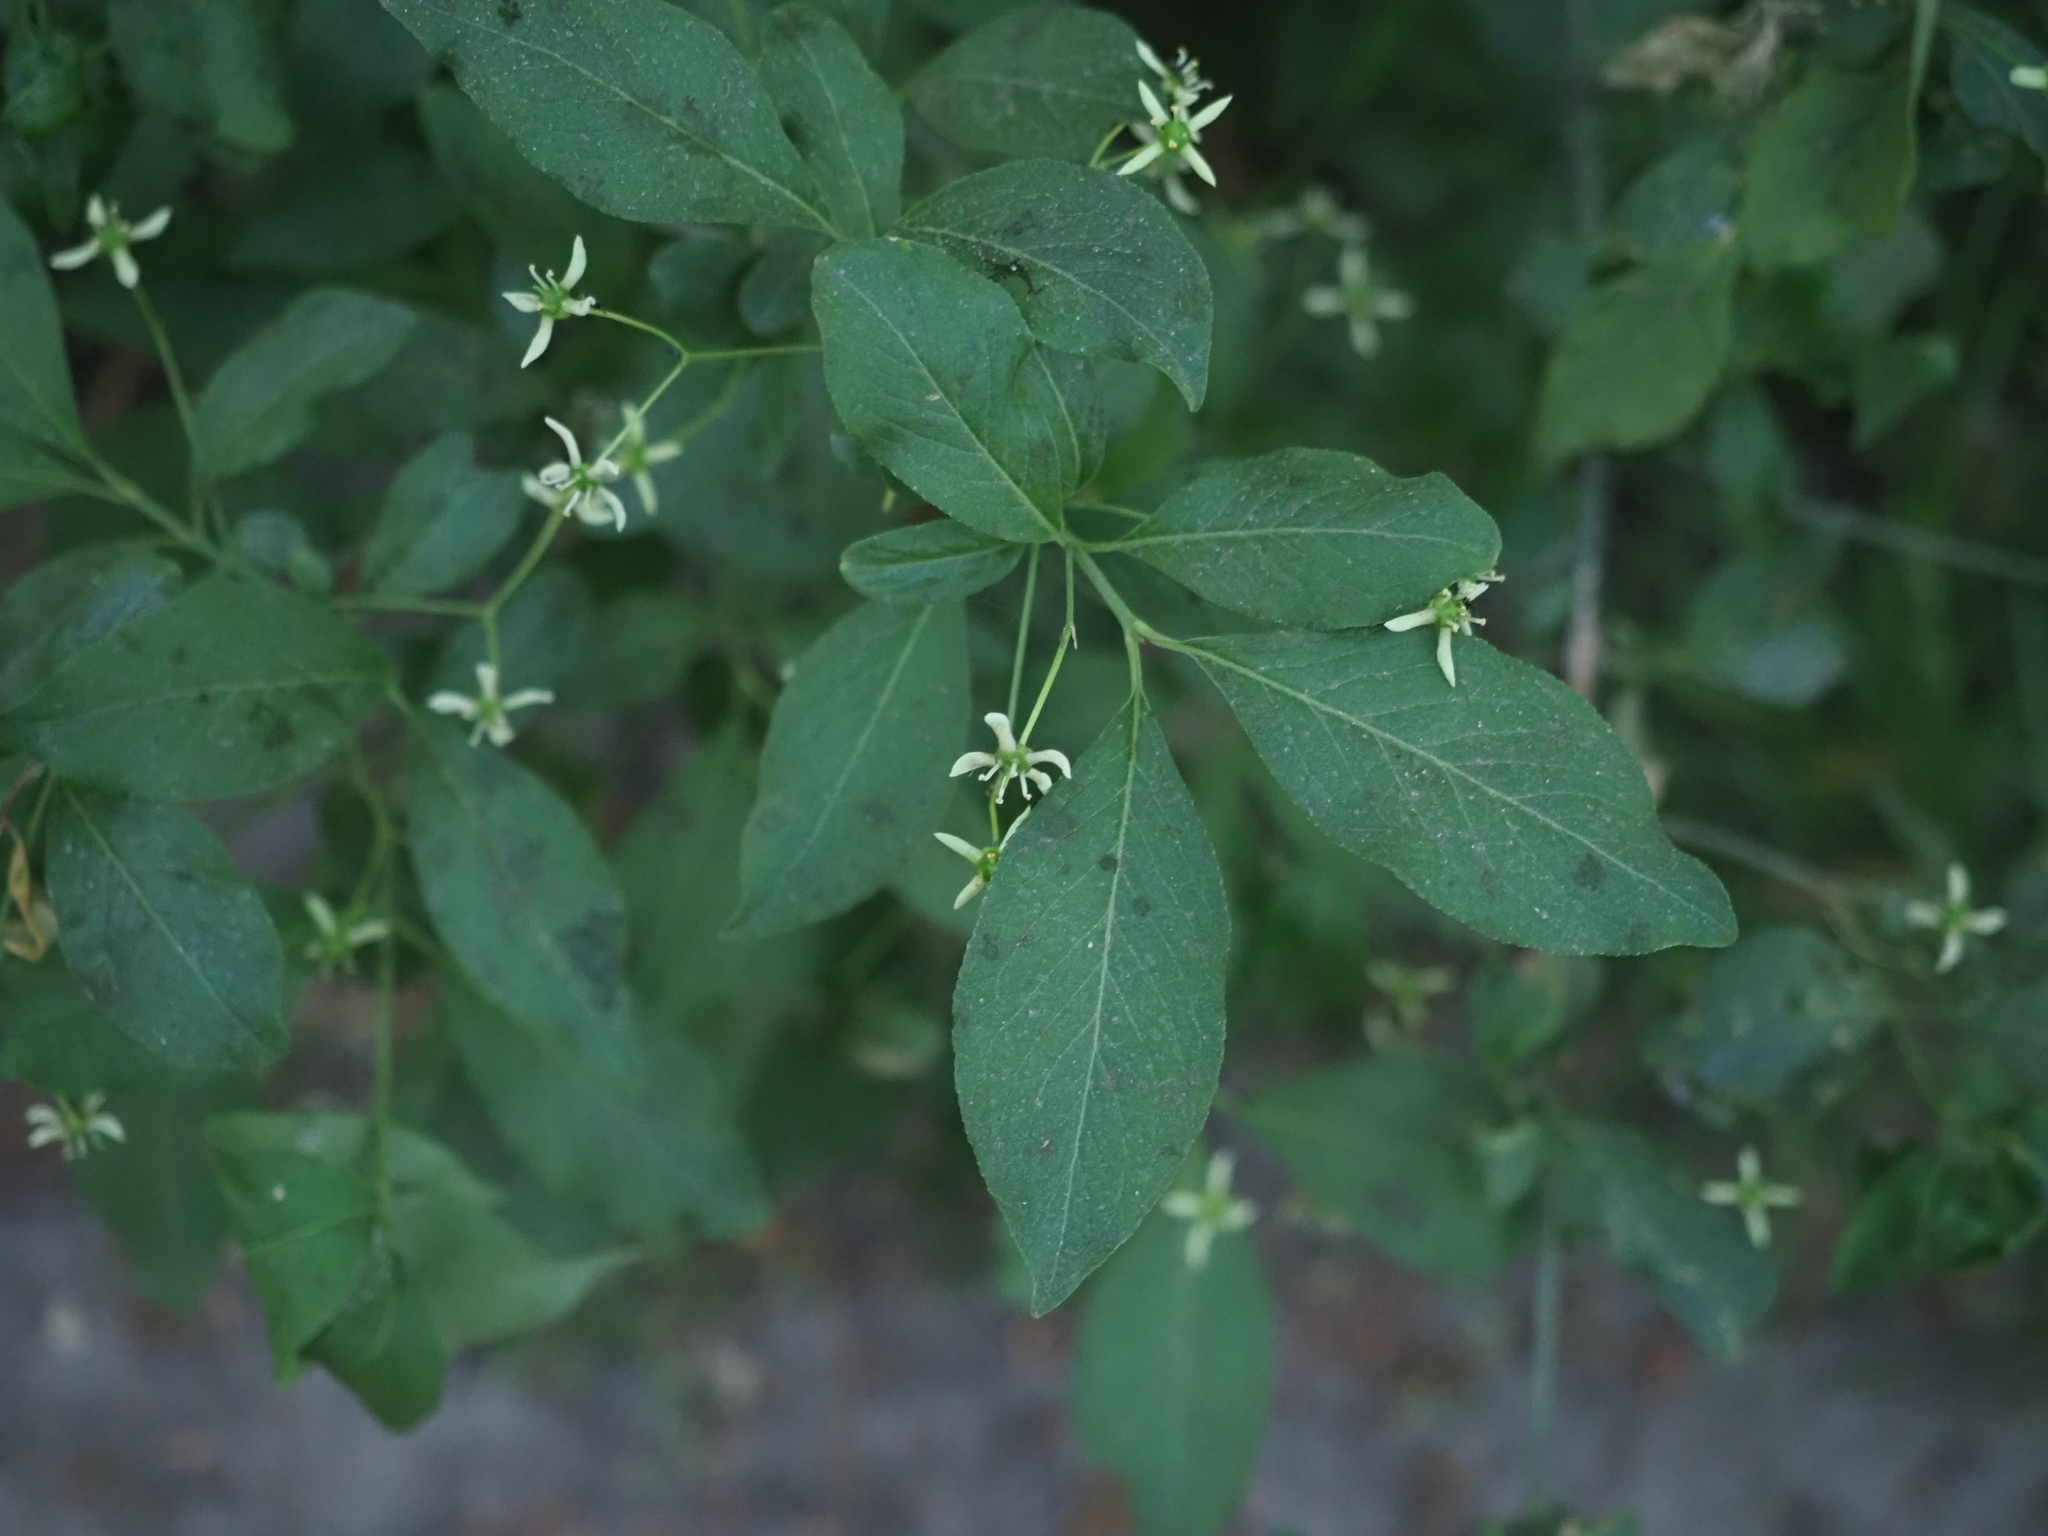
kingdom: Plantae
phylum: Tracheophyta
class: Magnoliopsida
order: Celastrales
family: Celastraceae
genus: Euonymus
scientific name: Euonymus europaeus
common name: Spindle
